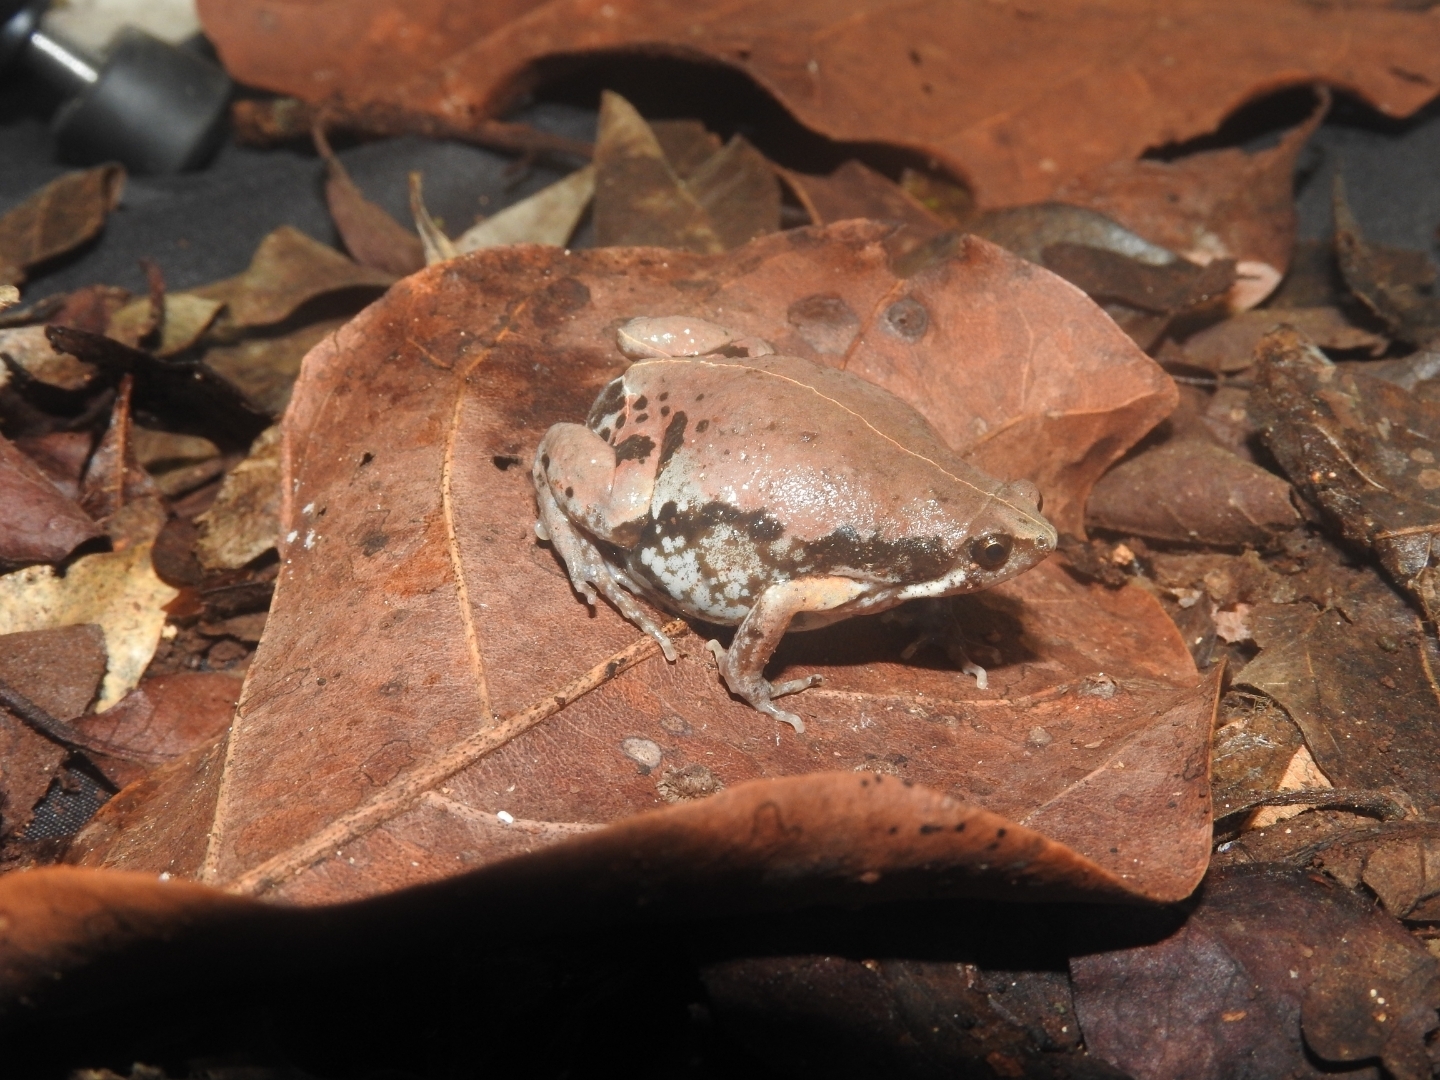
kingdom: Animalia
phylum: Chordata
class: Amphibia
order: Anura
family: Microhylidae
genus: Hypopachus
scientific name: Hypopachus variolosus
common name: Sheep frog
